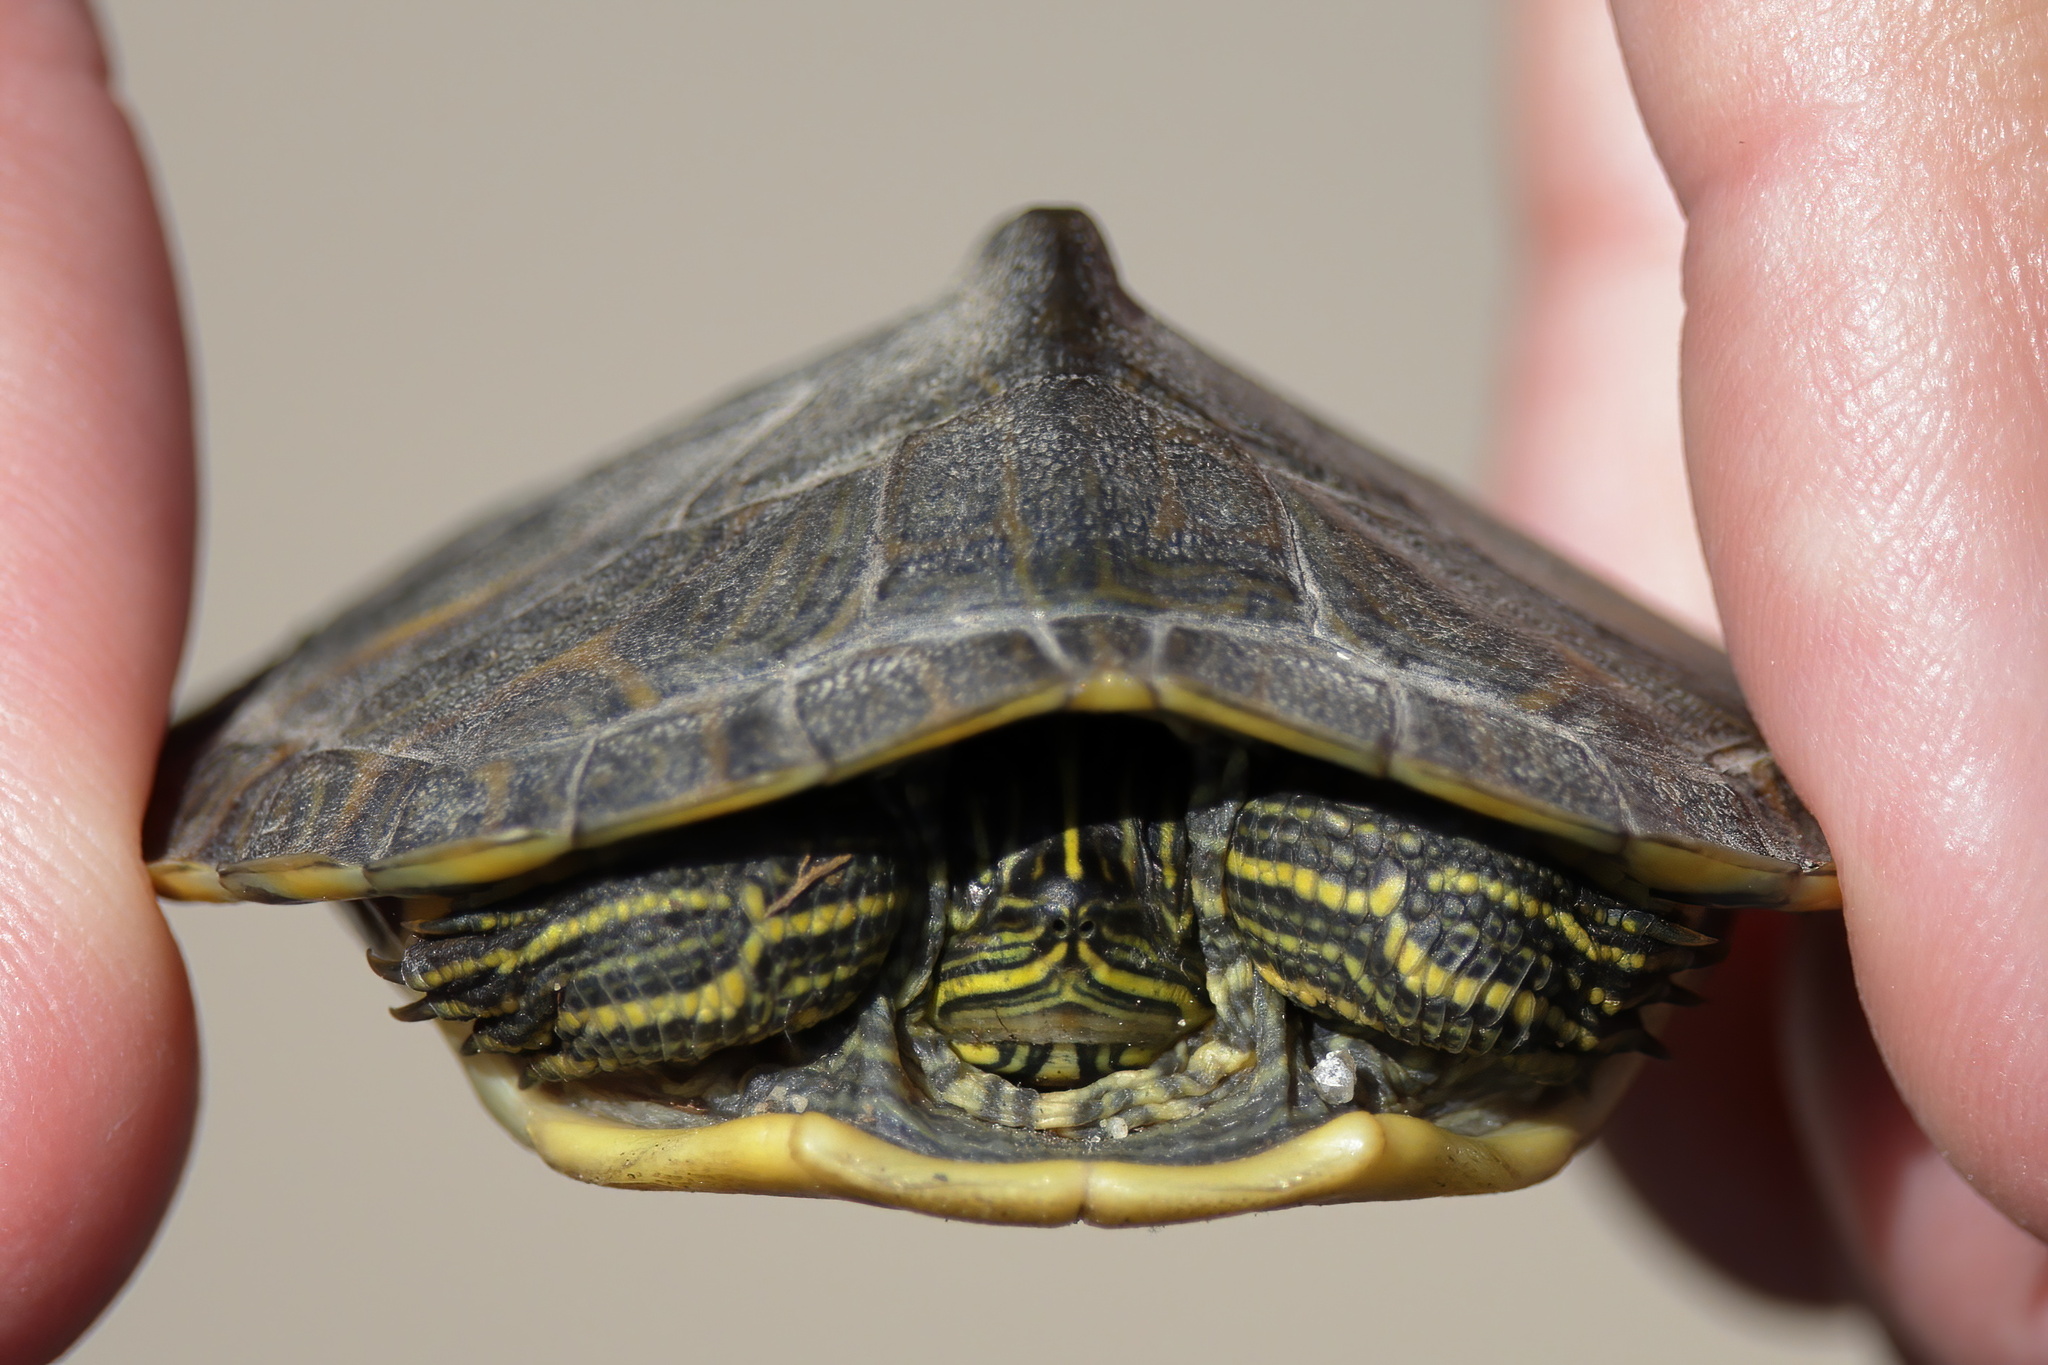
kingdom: Animalia
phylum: Chordata
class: Testudines
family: Emydidae
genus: Pseudemys
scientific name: Pseudemys concinna
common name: Eastern river cooter
